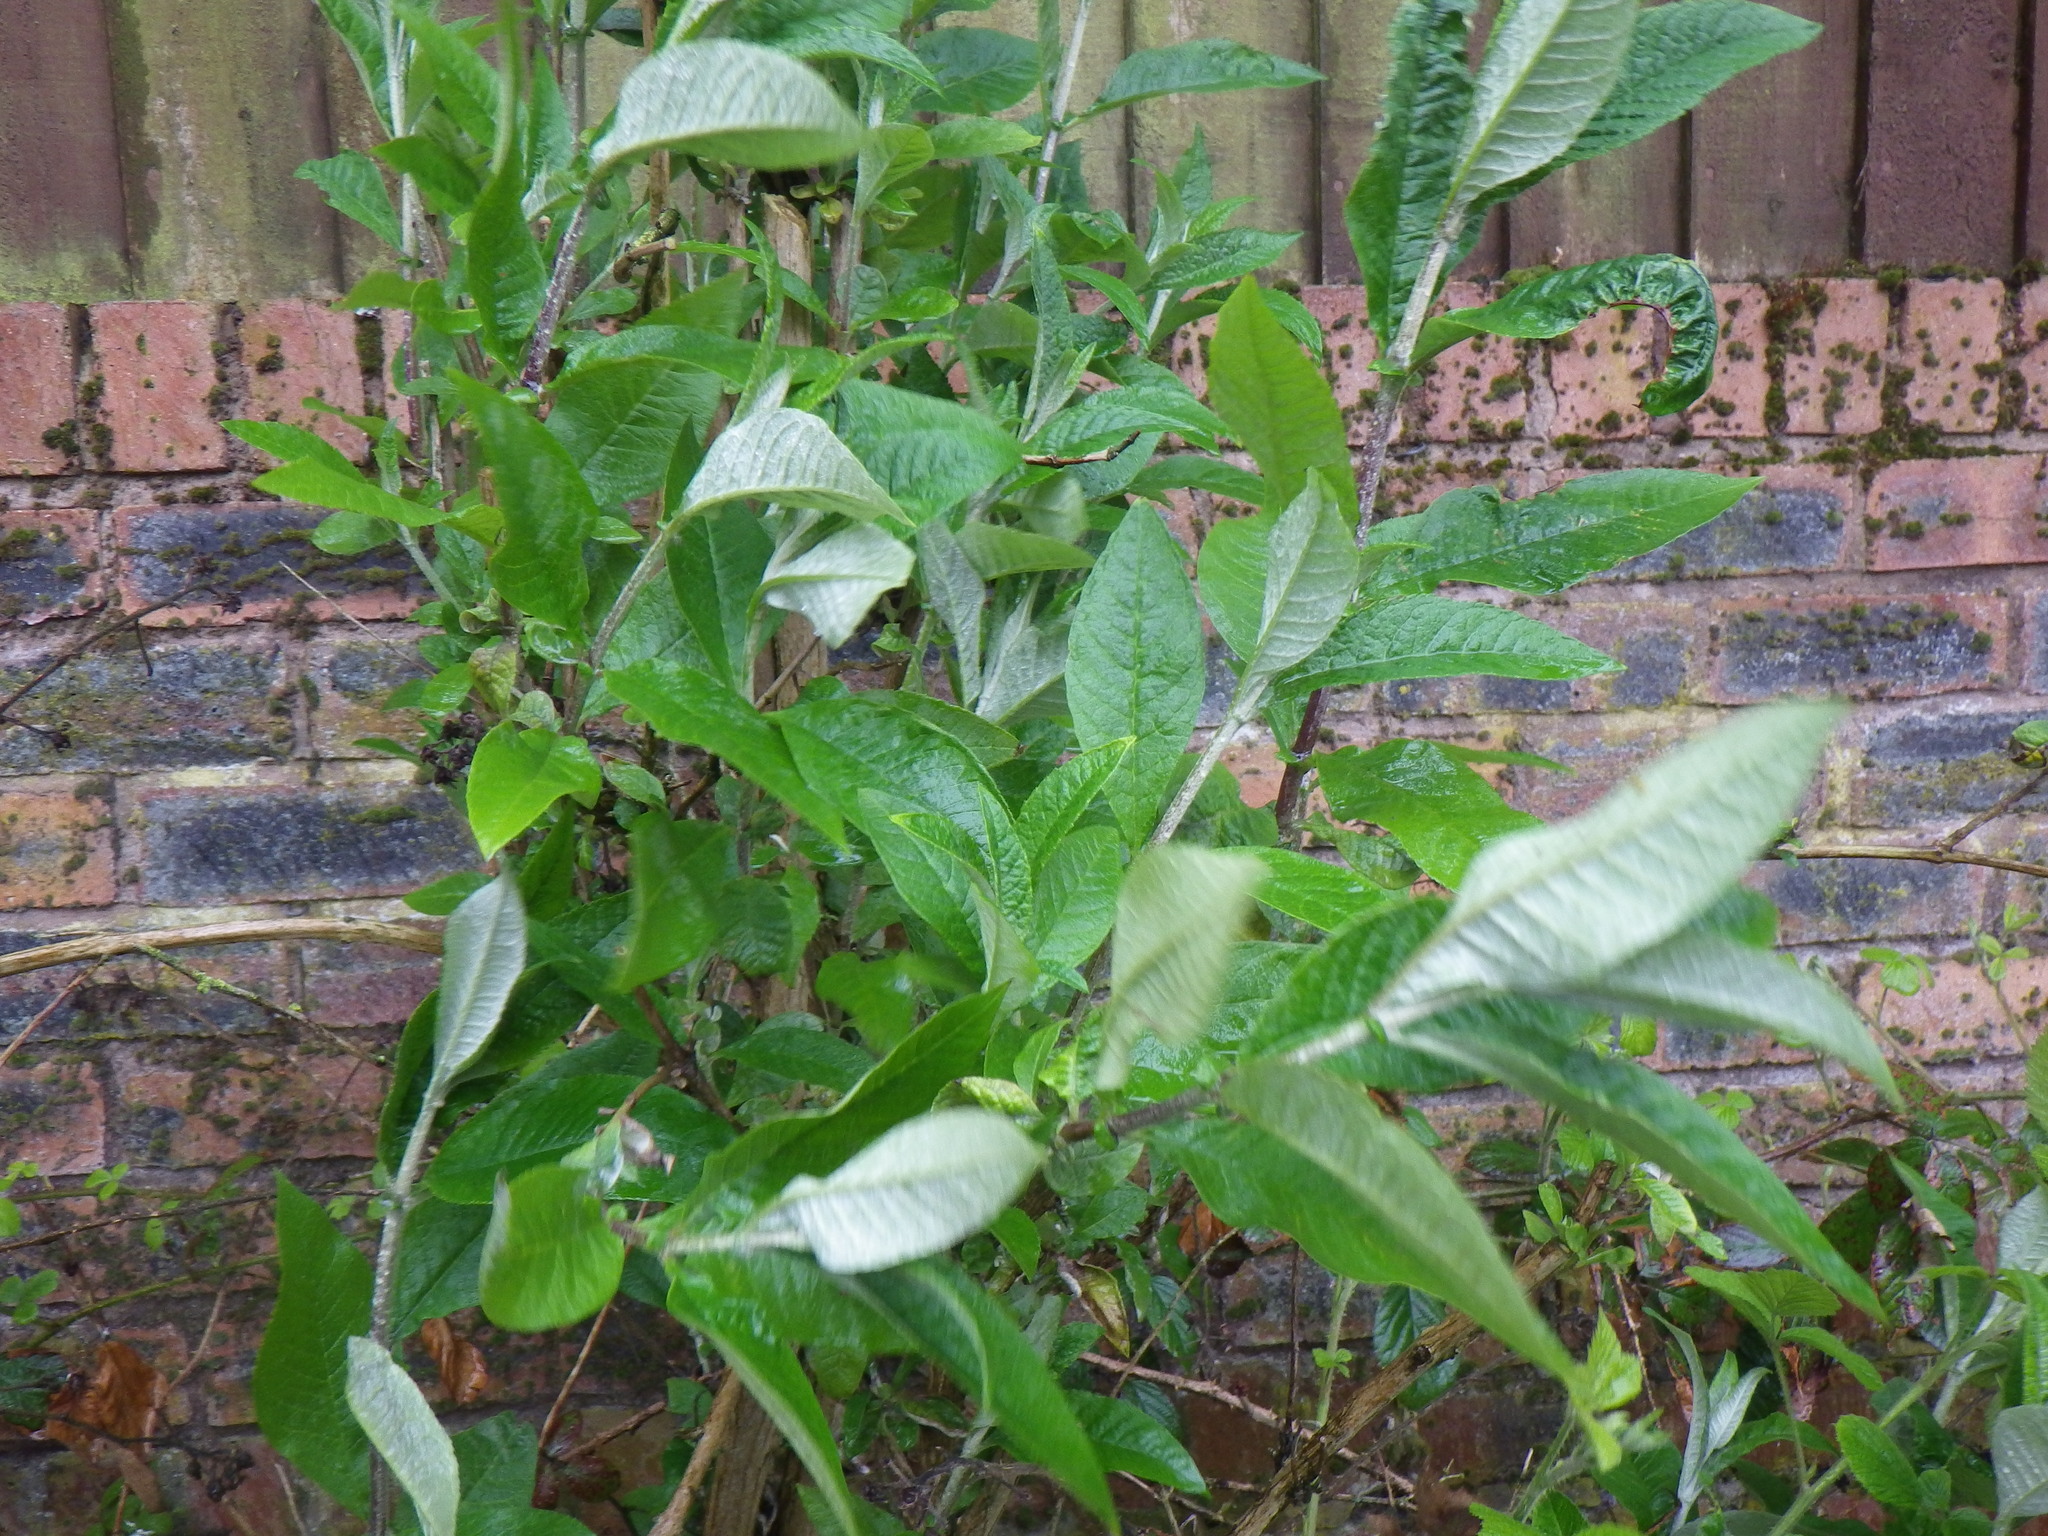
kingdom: Plantae
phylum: Tracheophyta
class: Magnoliopsida
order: Lamiales
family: Scrophulariaceae
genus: Buddleja
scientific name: Buddleja davidii
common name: Butterfly-bush
